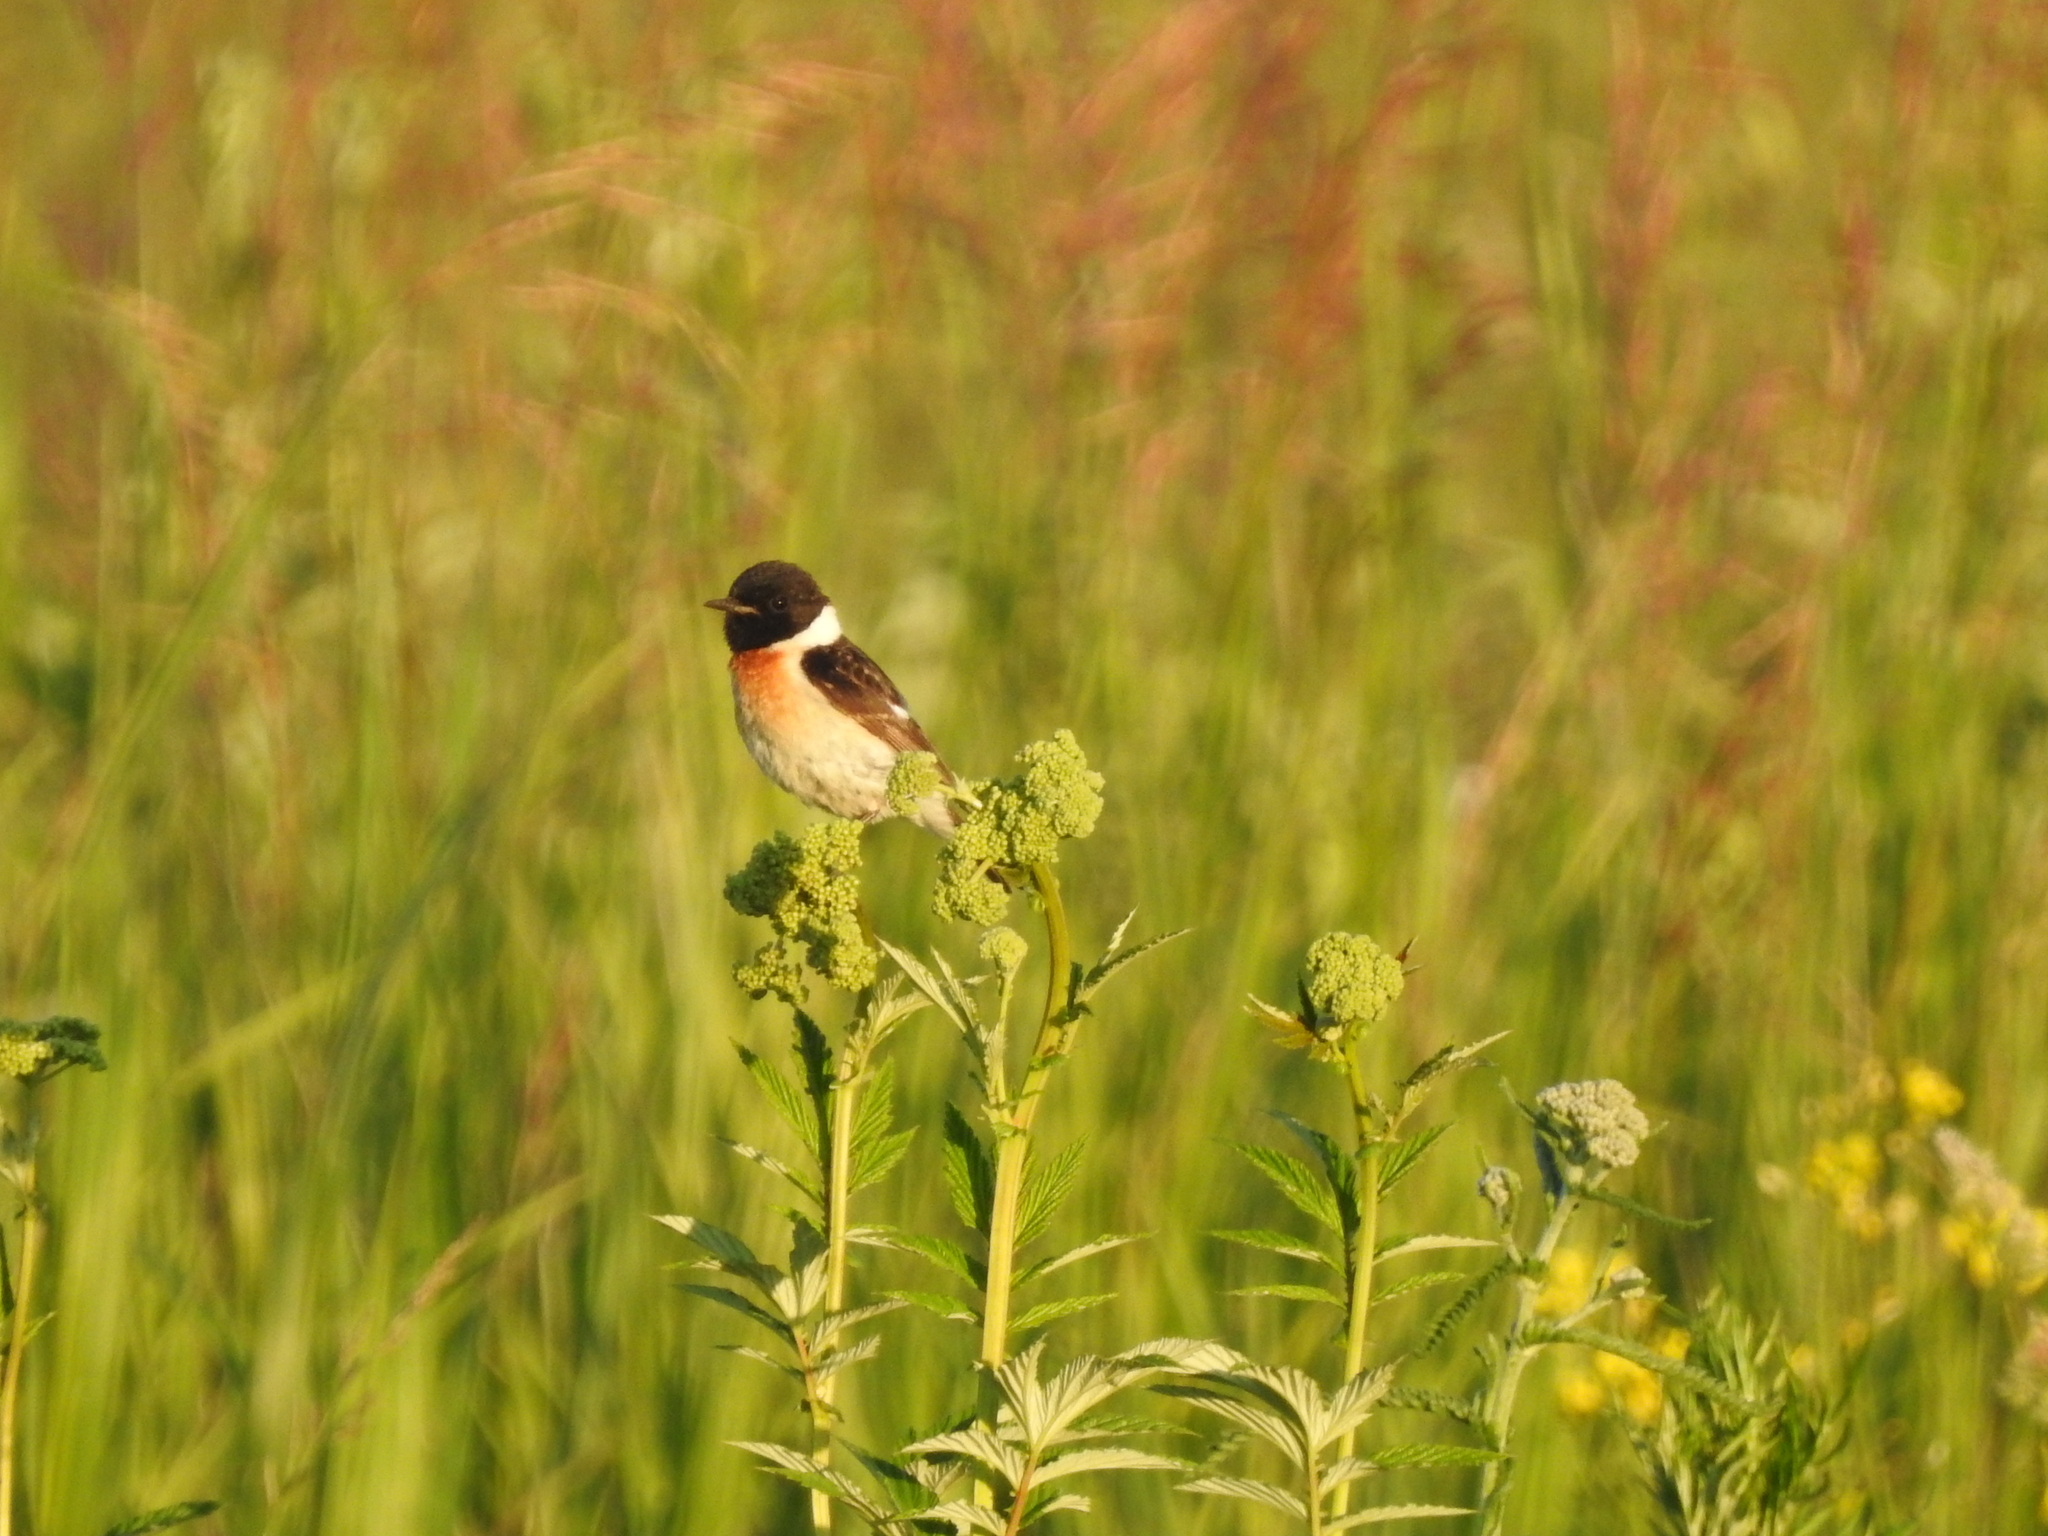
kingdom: Animalia
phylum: Chordata
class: Aves
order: Passeriformes
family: Muscicapidae
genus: Saxicola
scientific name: Saxicola maurus
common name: Siberian stonechat
